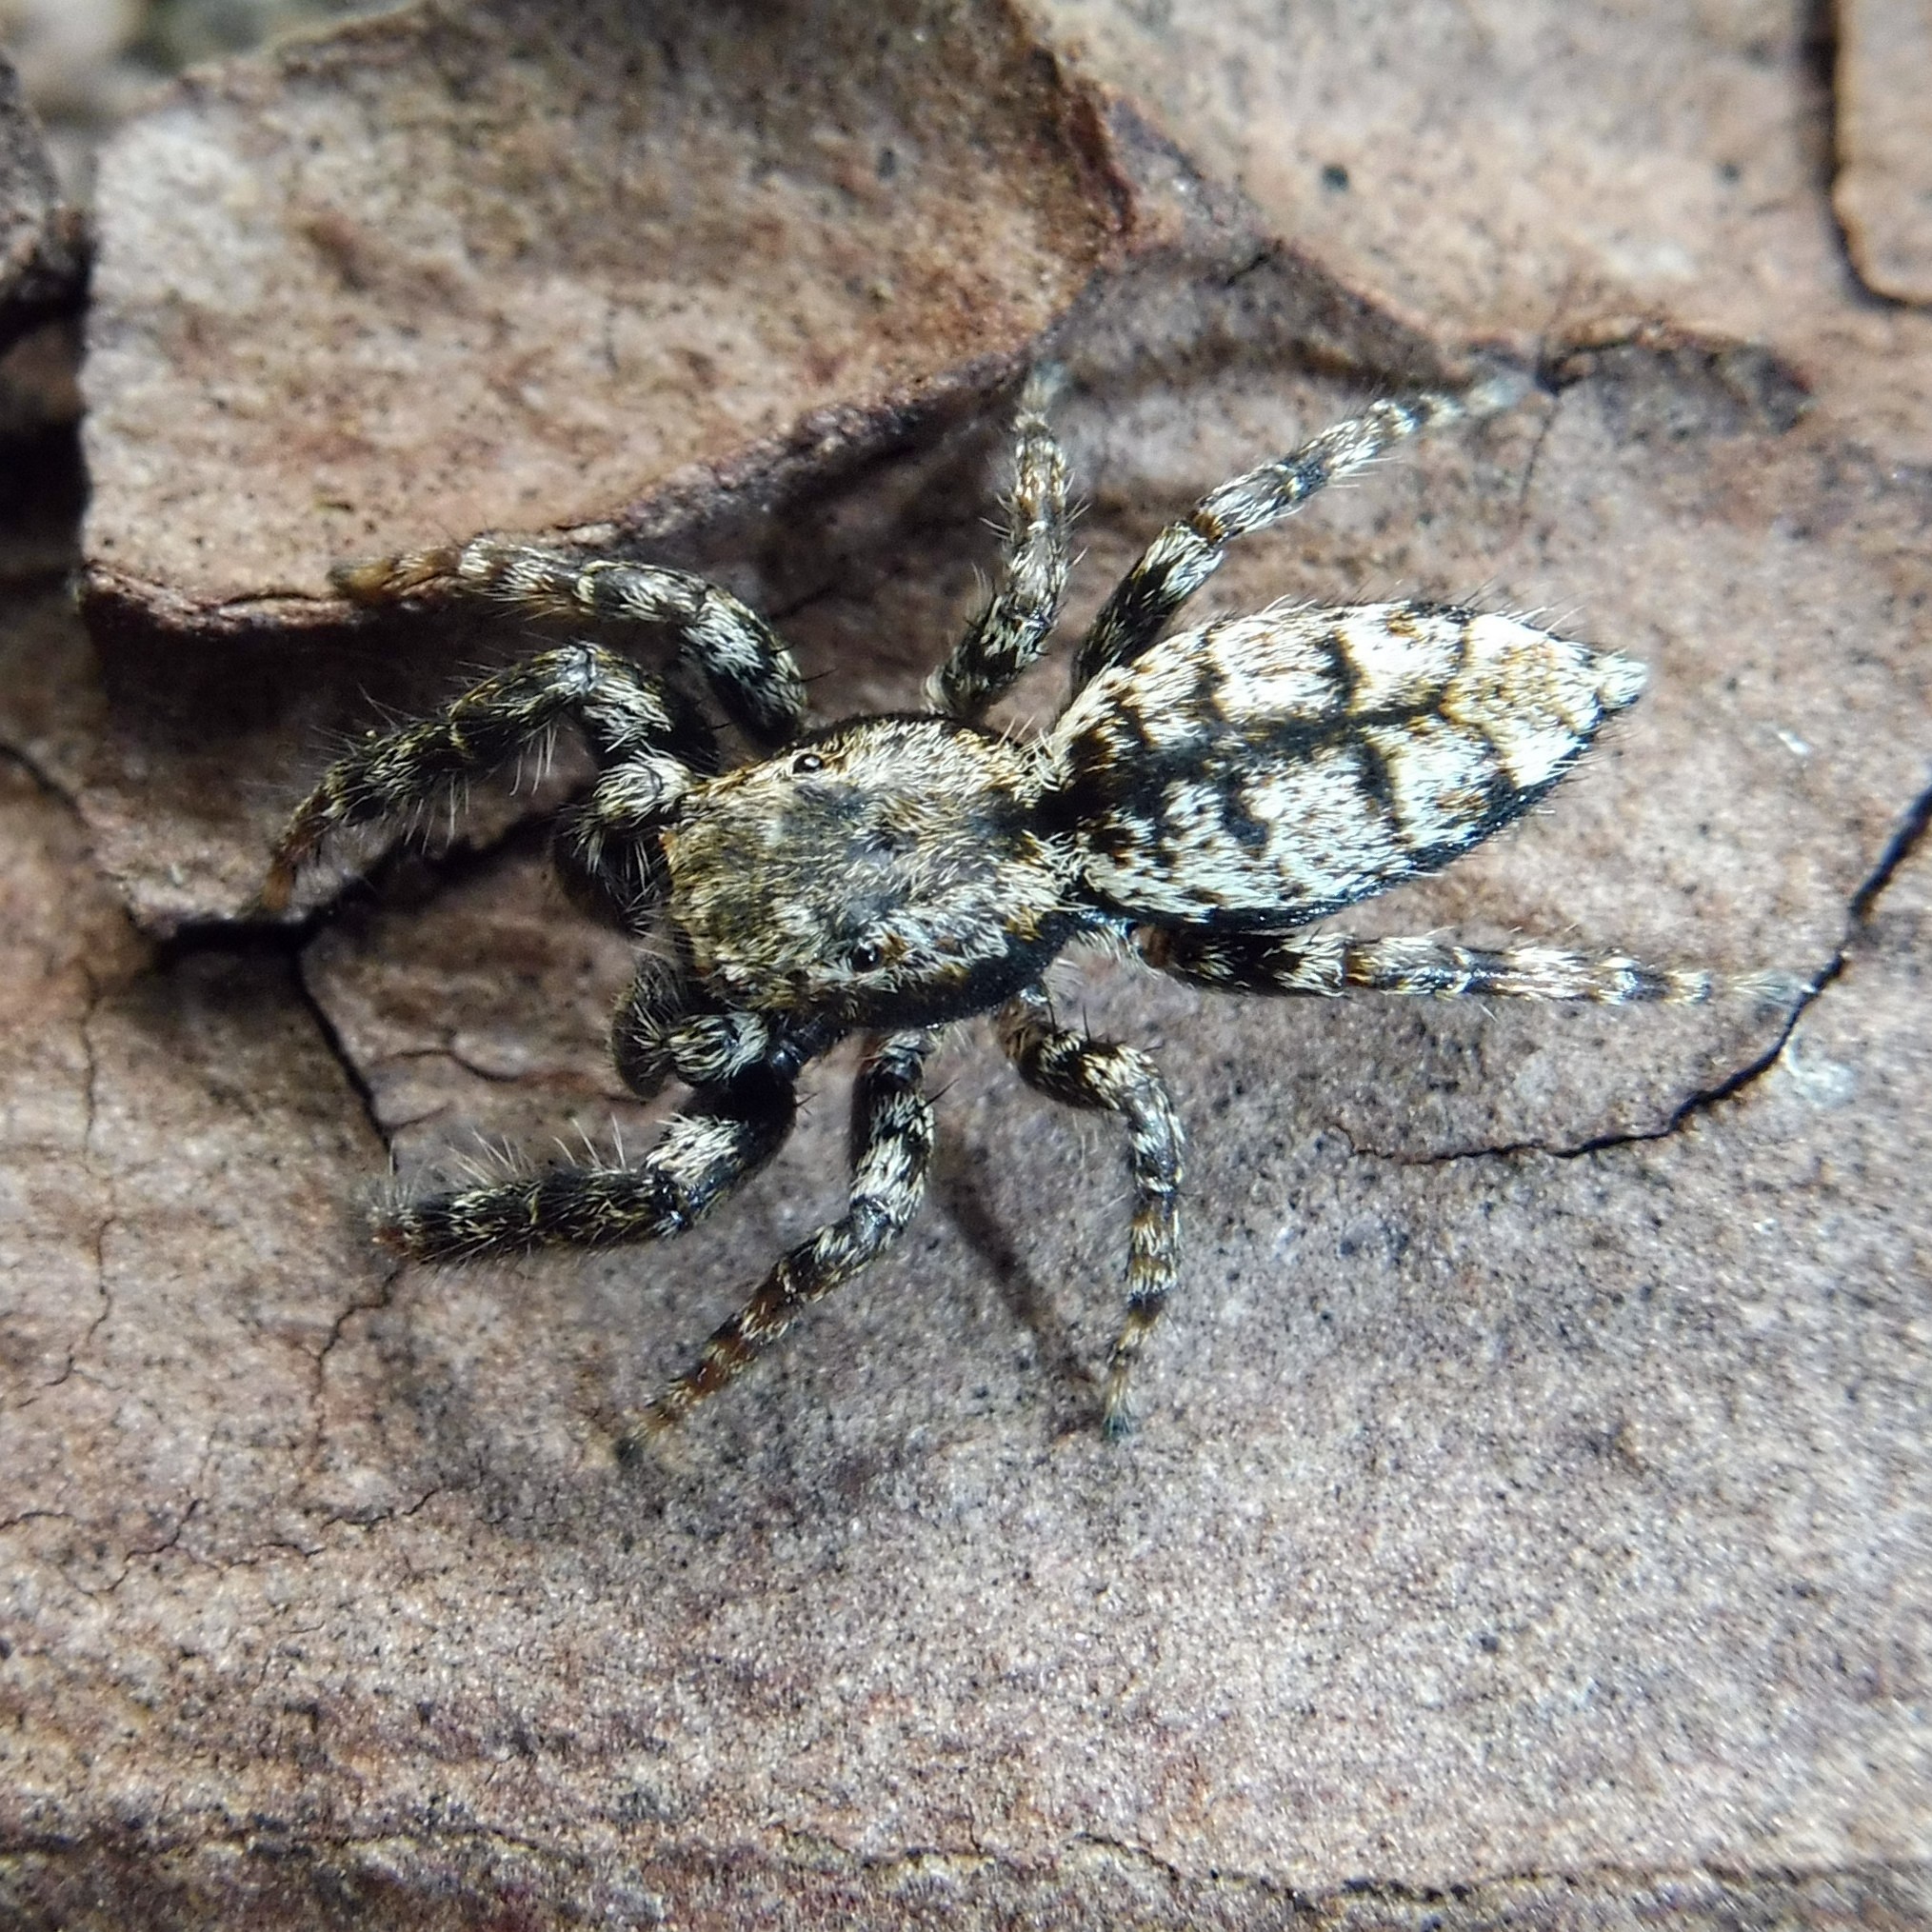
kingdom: Animalia
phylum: Arthropoda
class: Arachnida
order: Araneae
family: Salticidae
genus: Marpissa
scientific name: Marpissa muscosa
